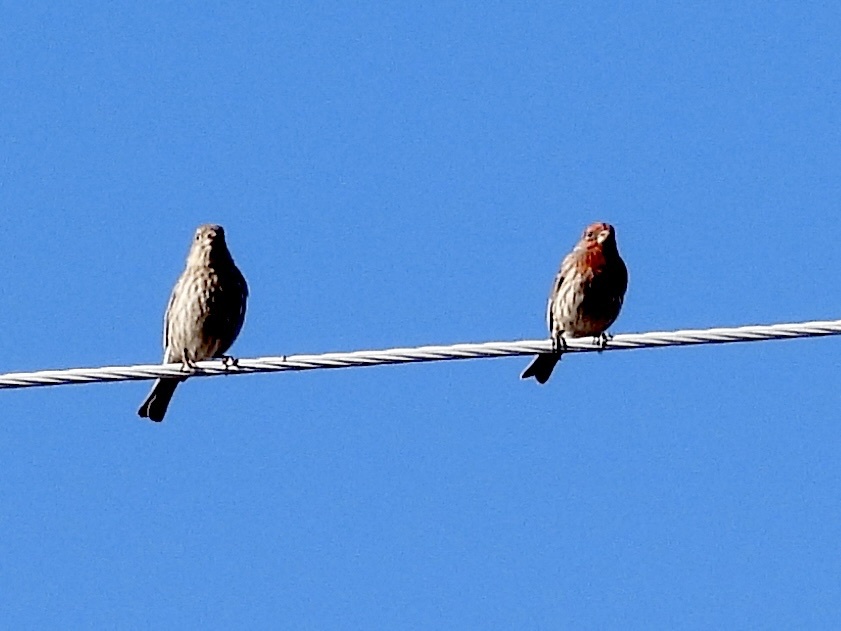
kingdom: Animalia
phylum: Chordata
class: Aves
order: Passeriformes
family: Fringillidae
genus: Haemorhous
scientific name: Haemorhous mexicanus
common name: House finch
